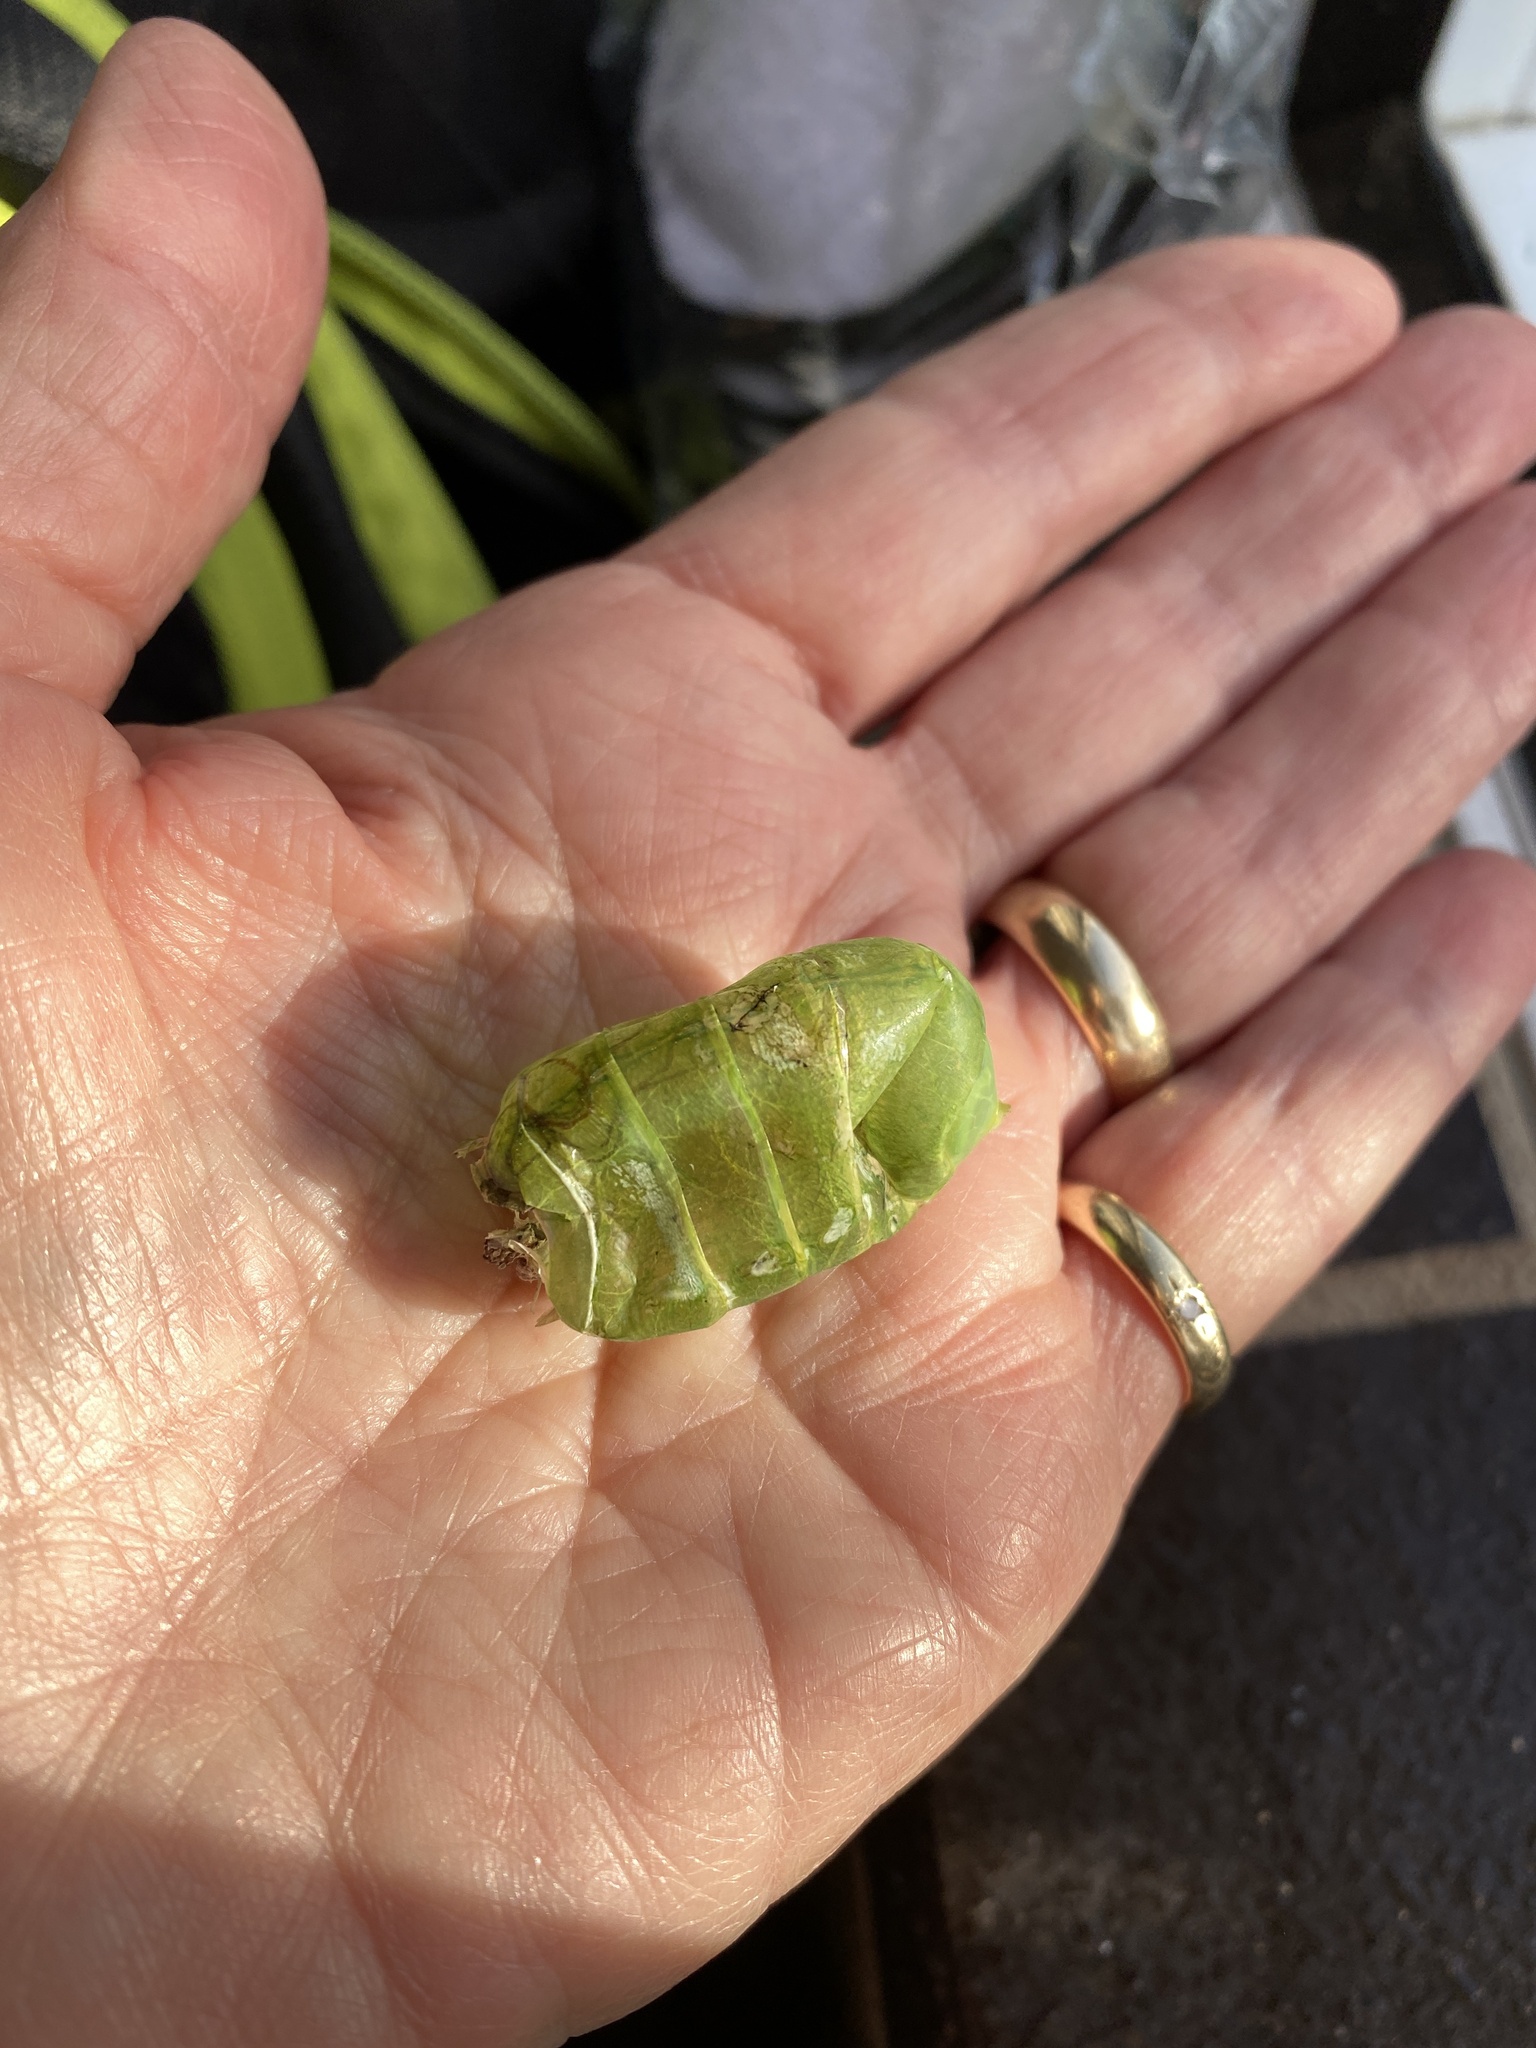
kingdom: Animalia
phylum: Arthropoda
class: Insecta
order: Hemiptera
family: Cicadidae
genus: Cystosoma
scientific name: Cystosoma saundersii
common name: Bladder cicada
